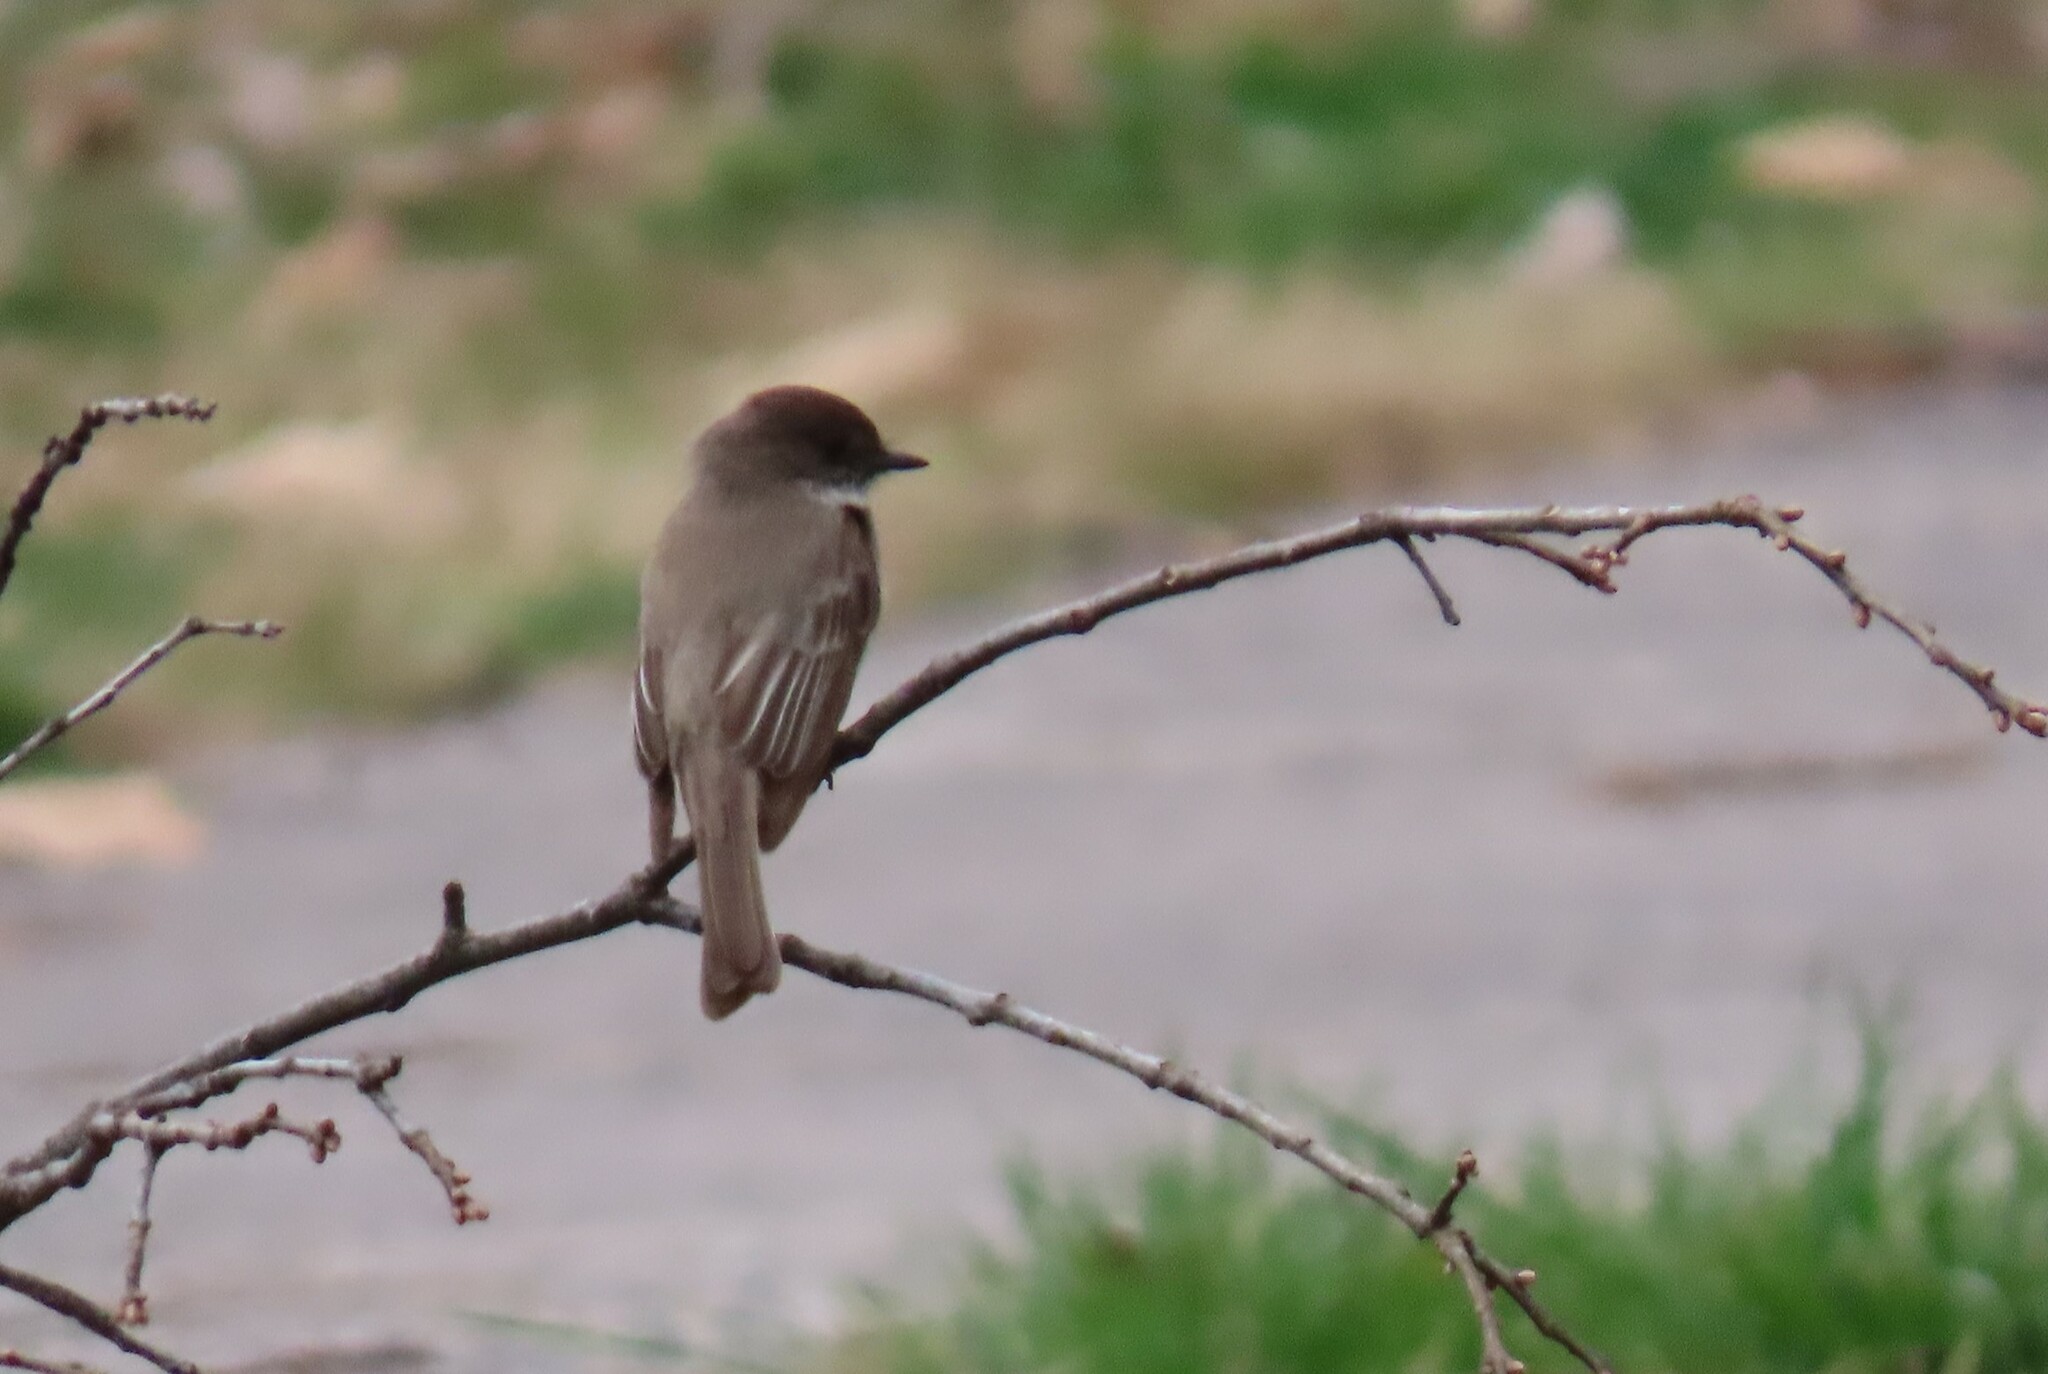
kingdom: Animalia
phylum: Chordata
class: Aves
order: Passeriformes
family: Tyrannidae
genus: Sayornis
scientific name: Sayornis phoebe
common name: Eastern phoebe
